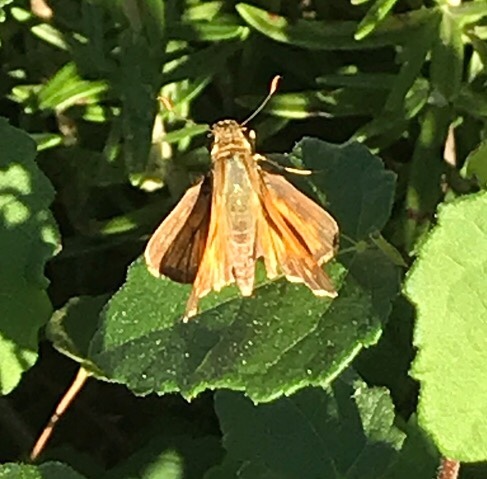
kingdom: Animalia
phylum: Arthropoda
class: Insecta
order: Lepidoptera
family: Hesperiidae
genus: Atalopedes
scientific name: Atalopedes
